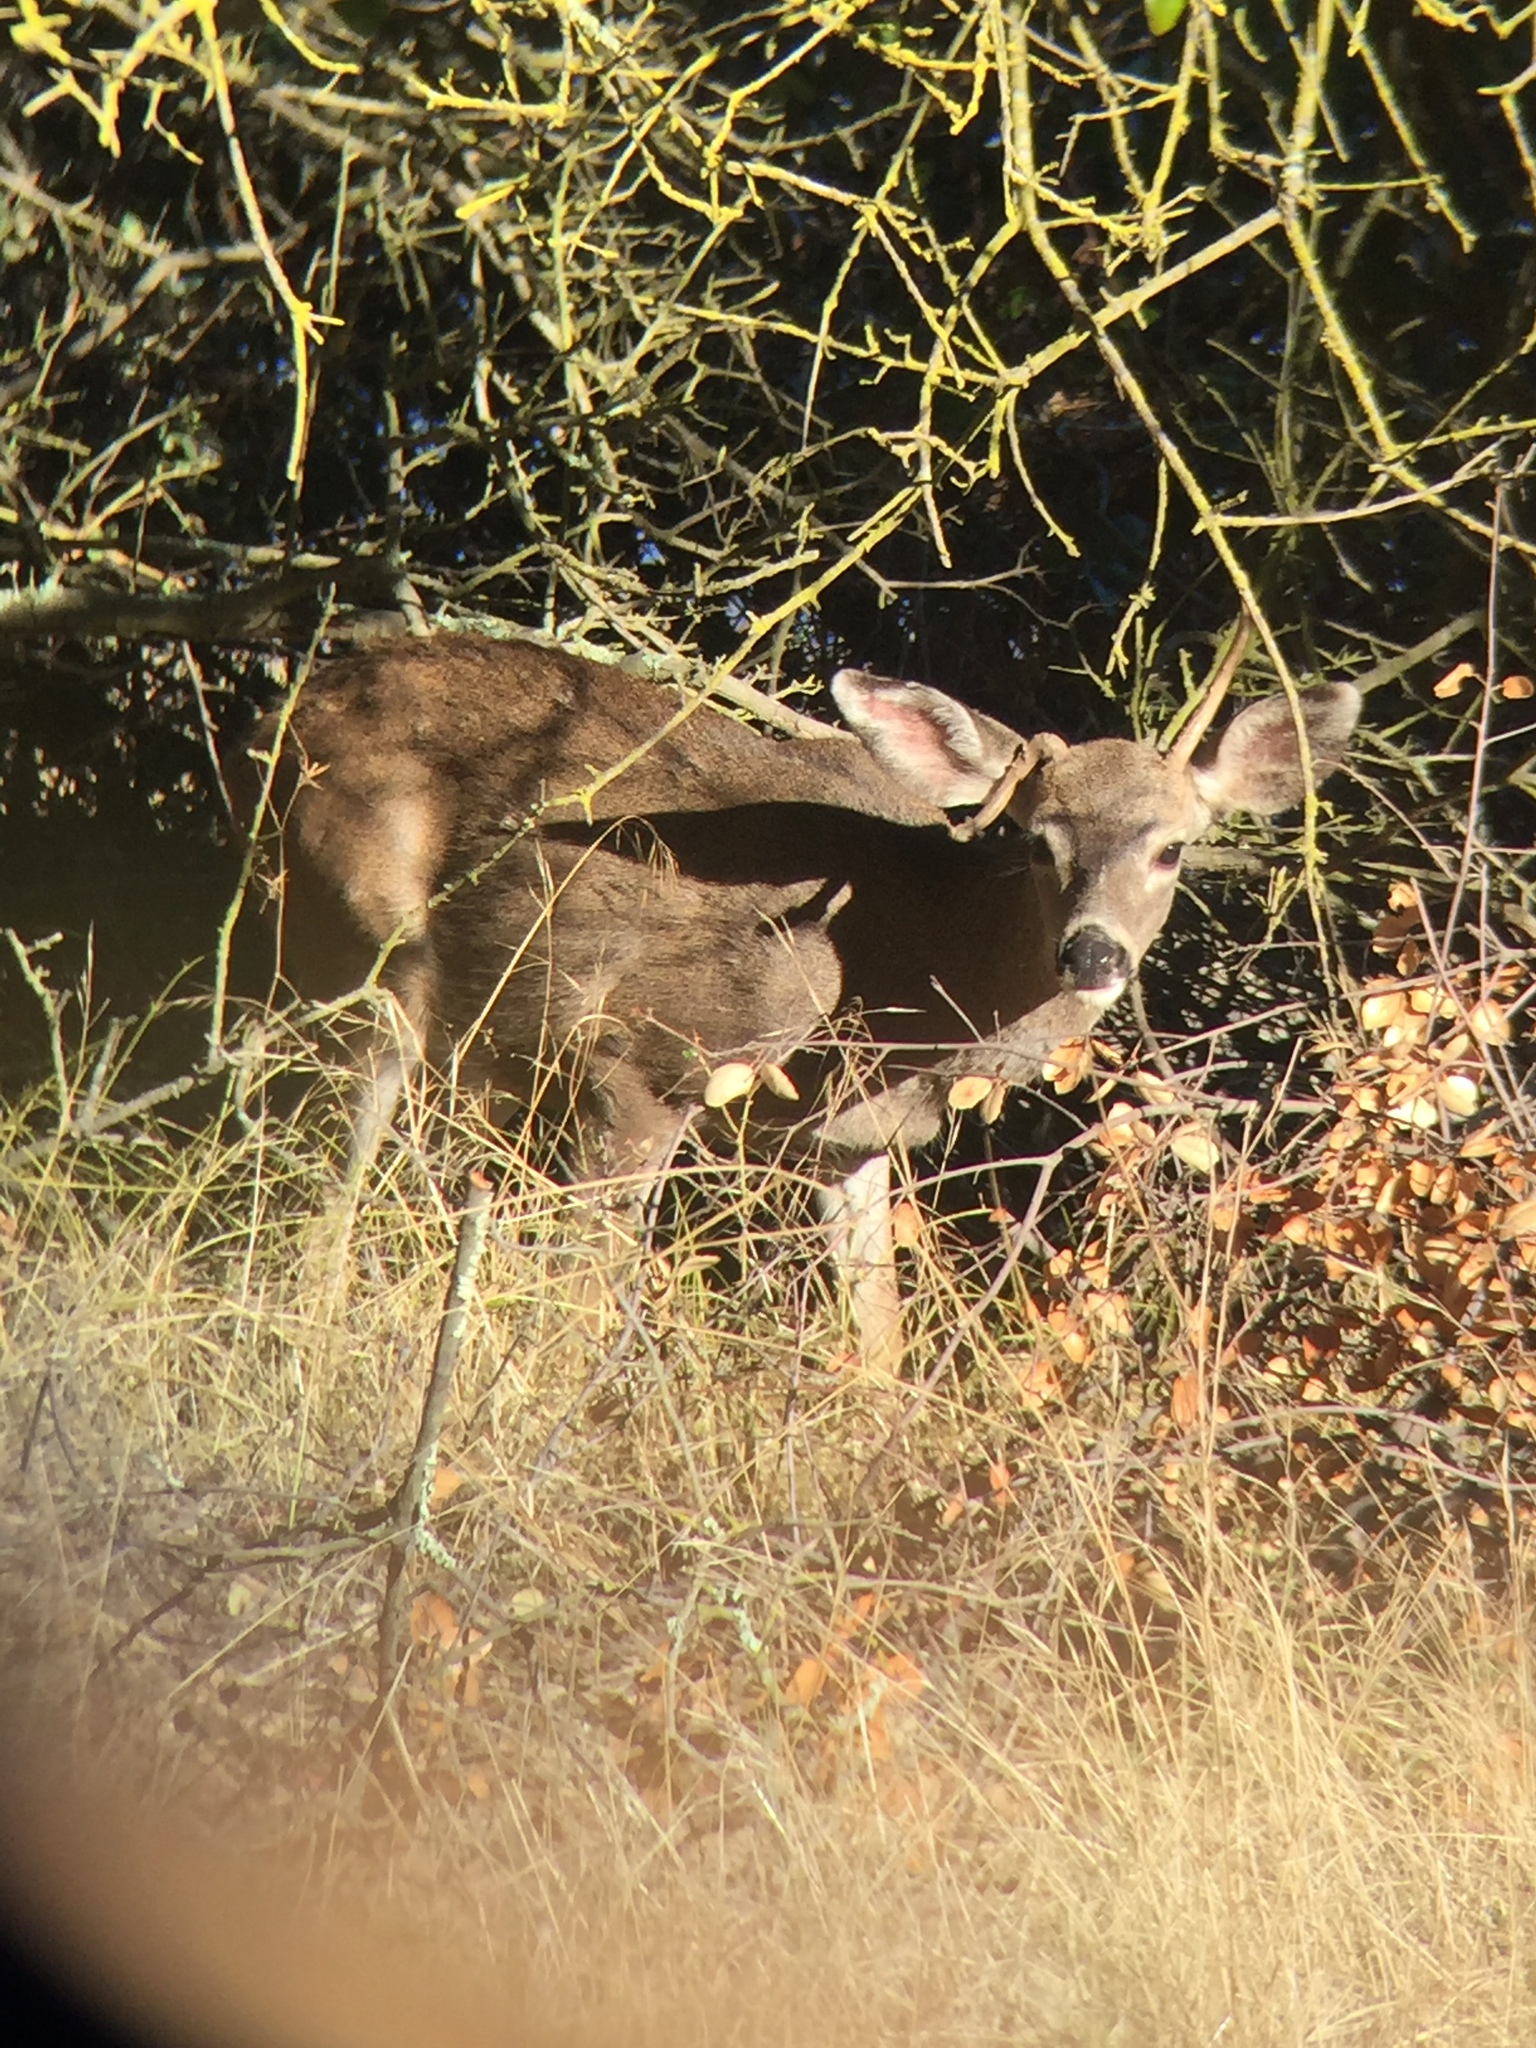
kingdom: Animalia
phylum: Chordata
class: Mammalia
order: Artiodactyla
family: Cervidae
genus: Odocoileus
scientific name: Odocoileus hemionus
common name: Mule deer
